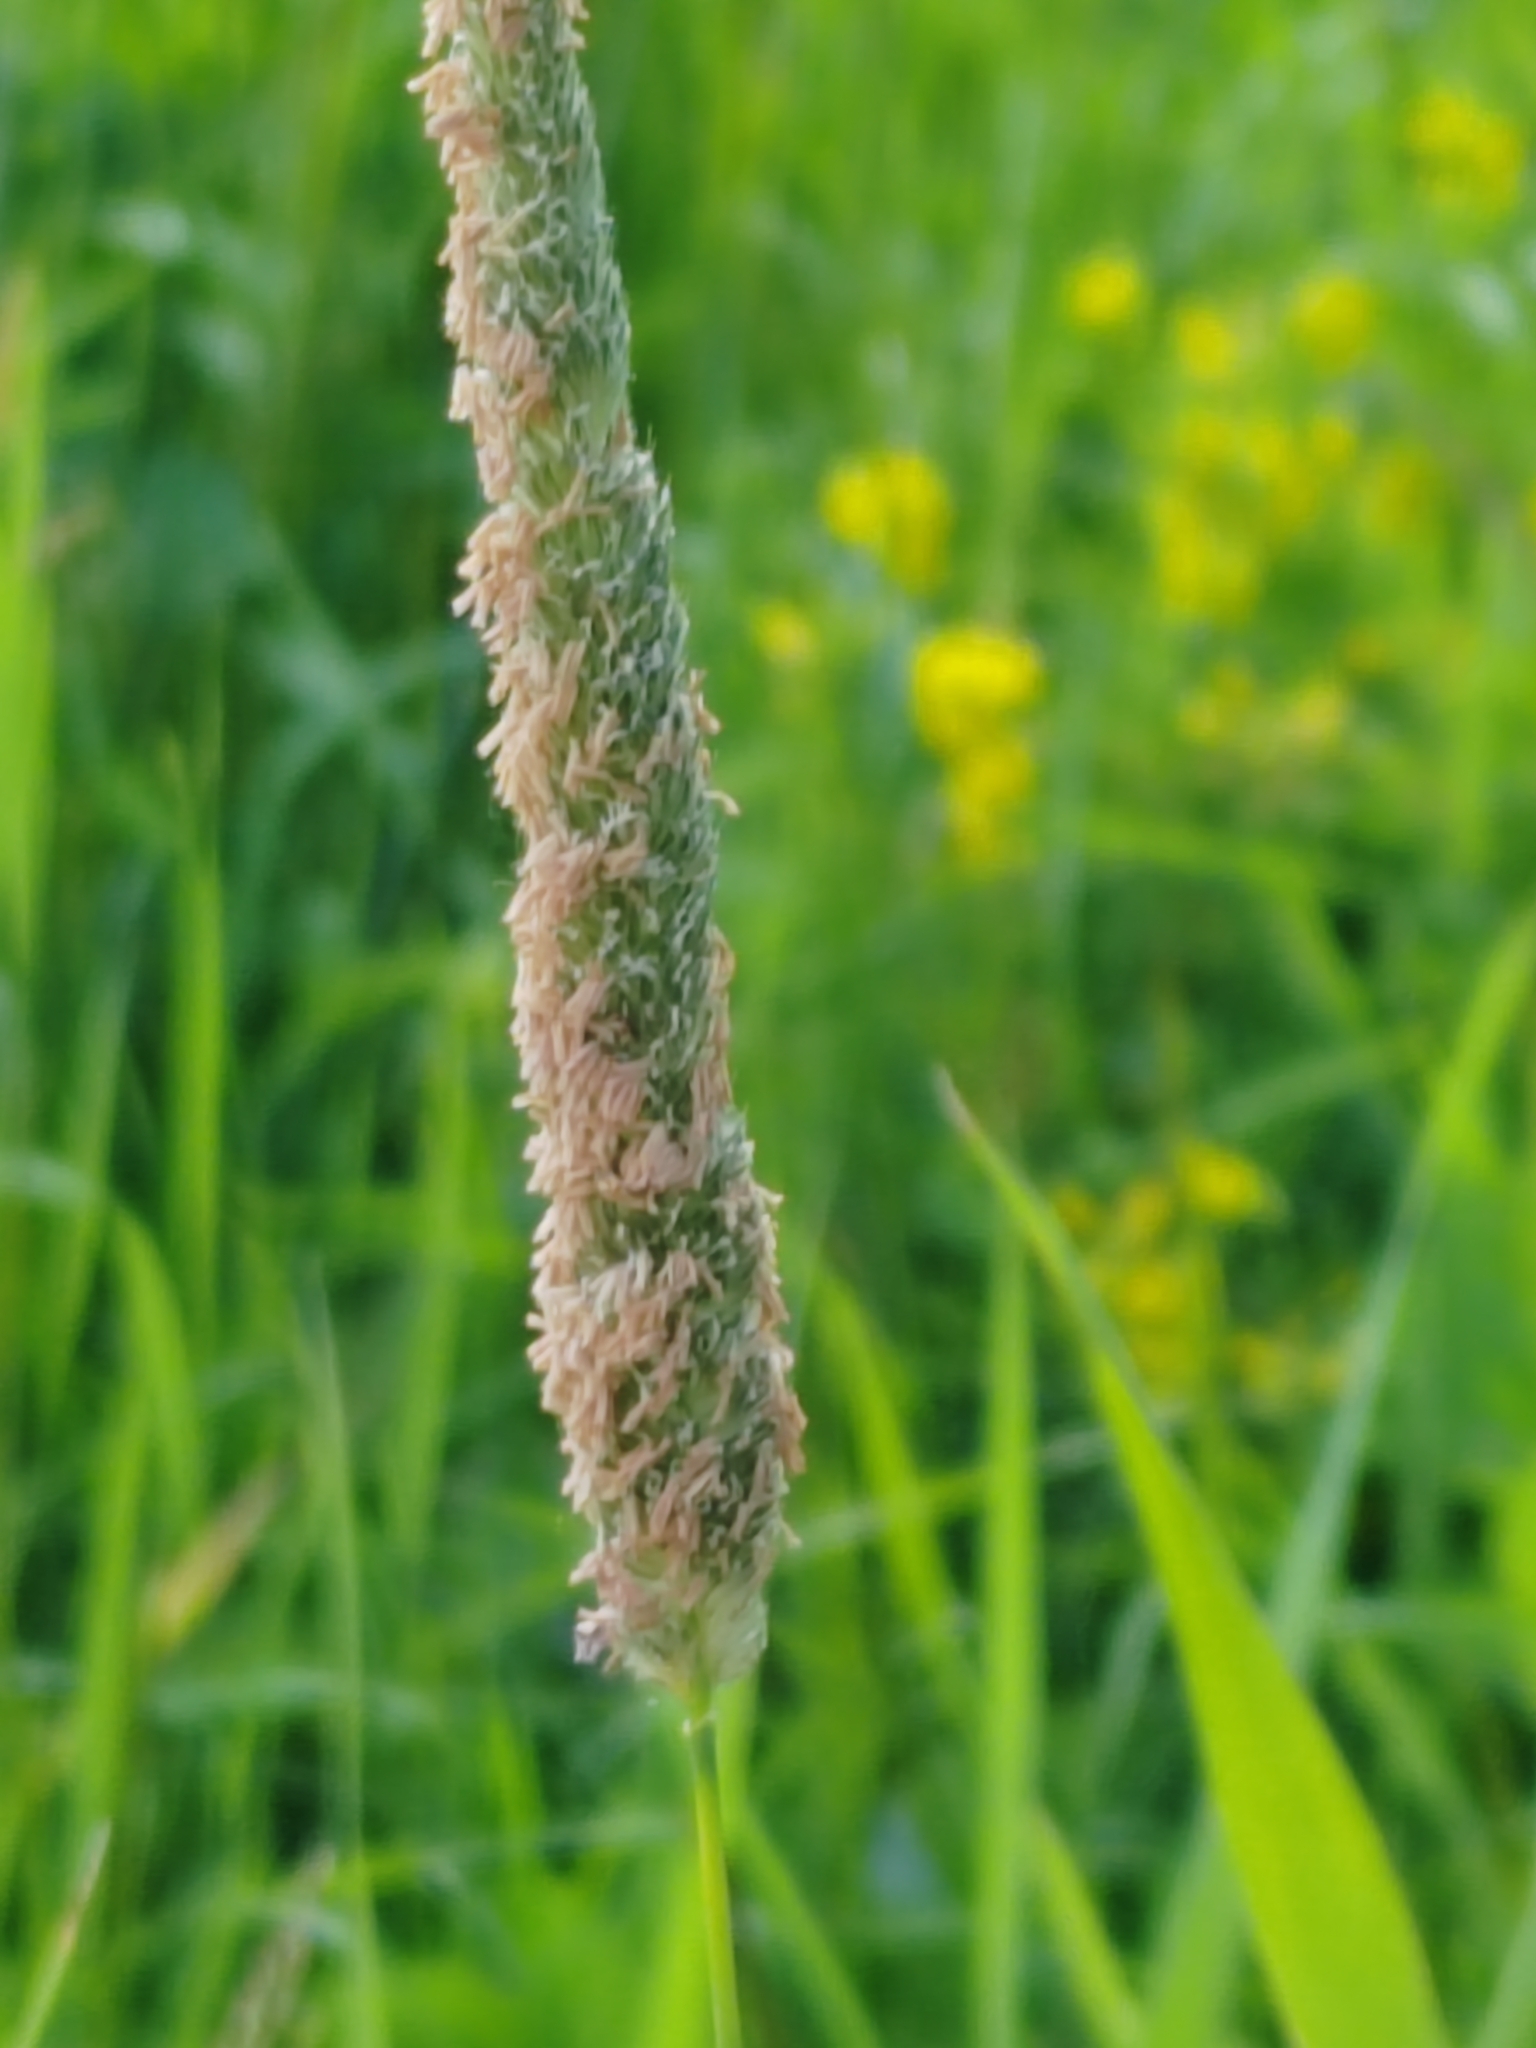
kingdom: Plantae
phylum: Tracheophyta
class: Liliopsida
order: Poales
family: Poaceae
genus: Alopecurus
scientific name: Alopecurus pratensis
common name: Meadow foxtail
